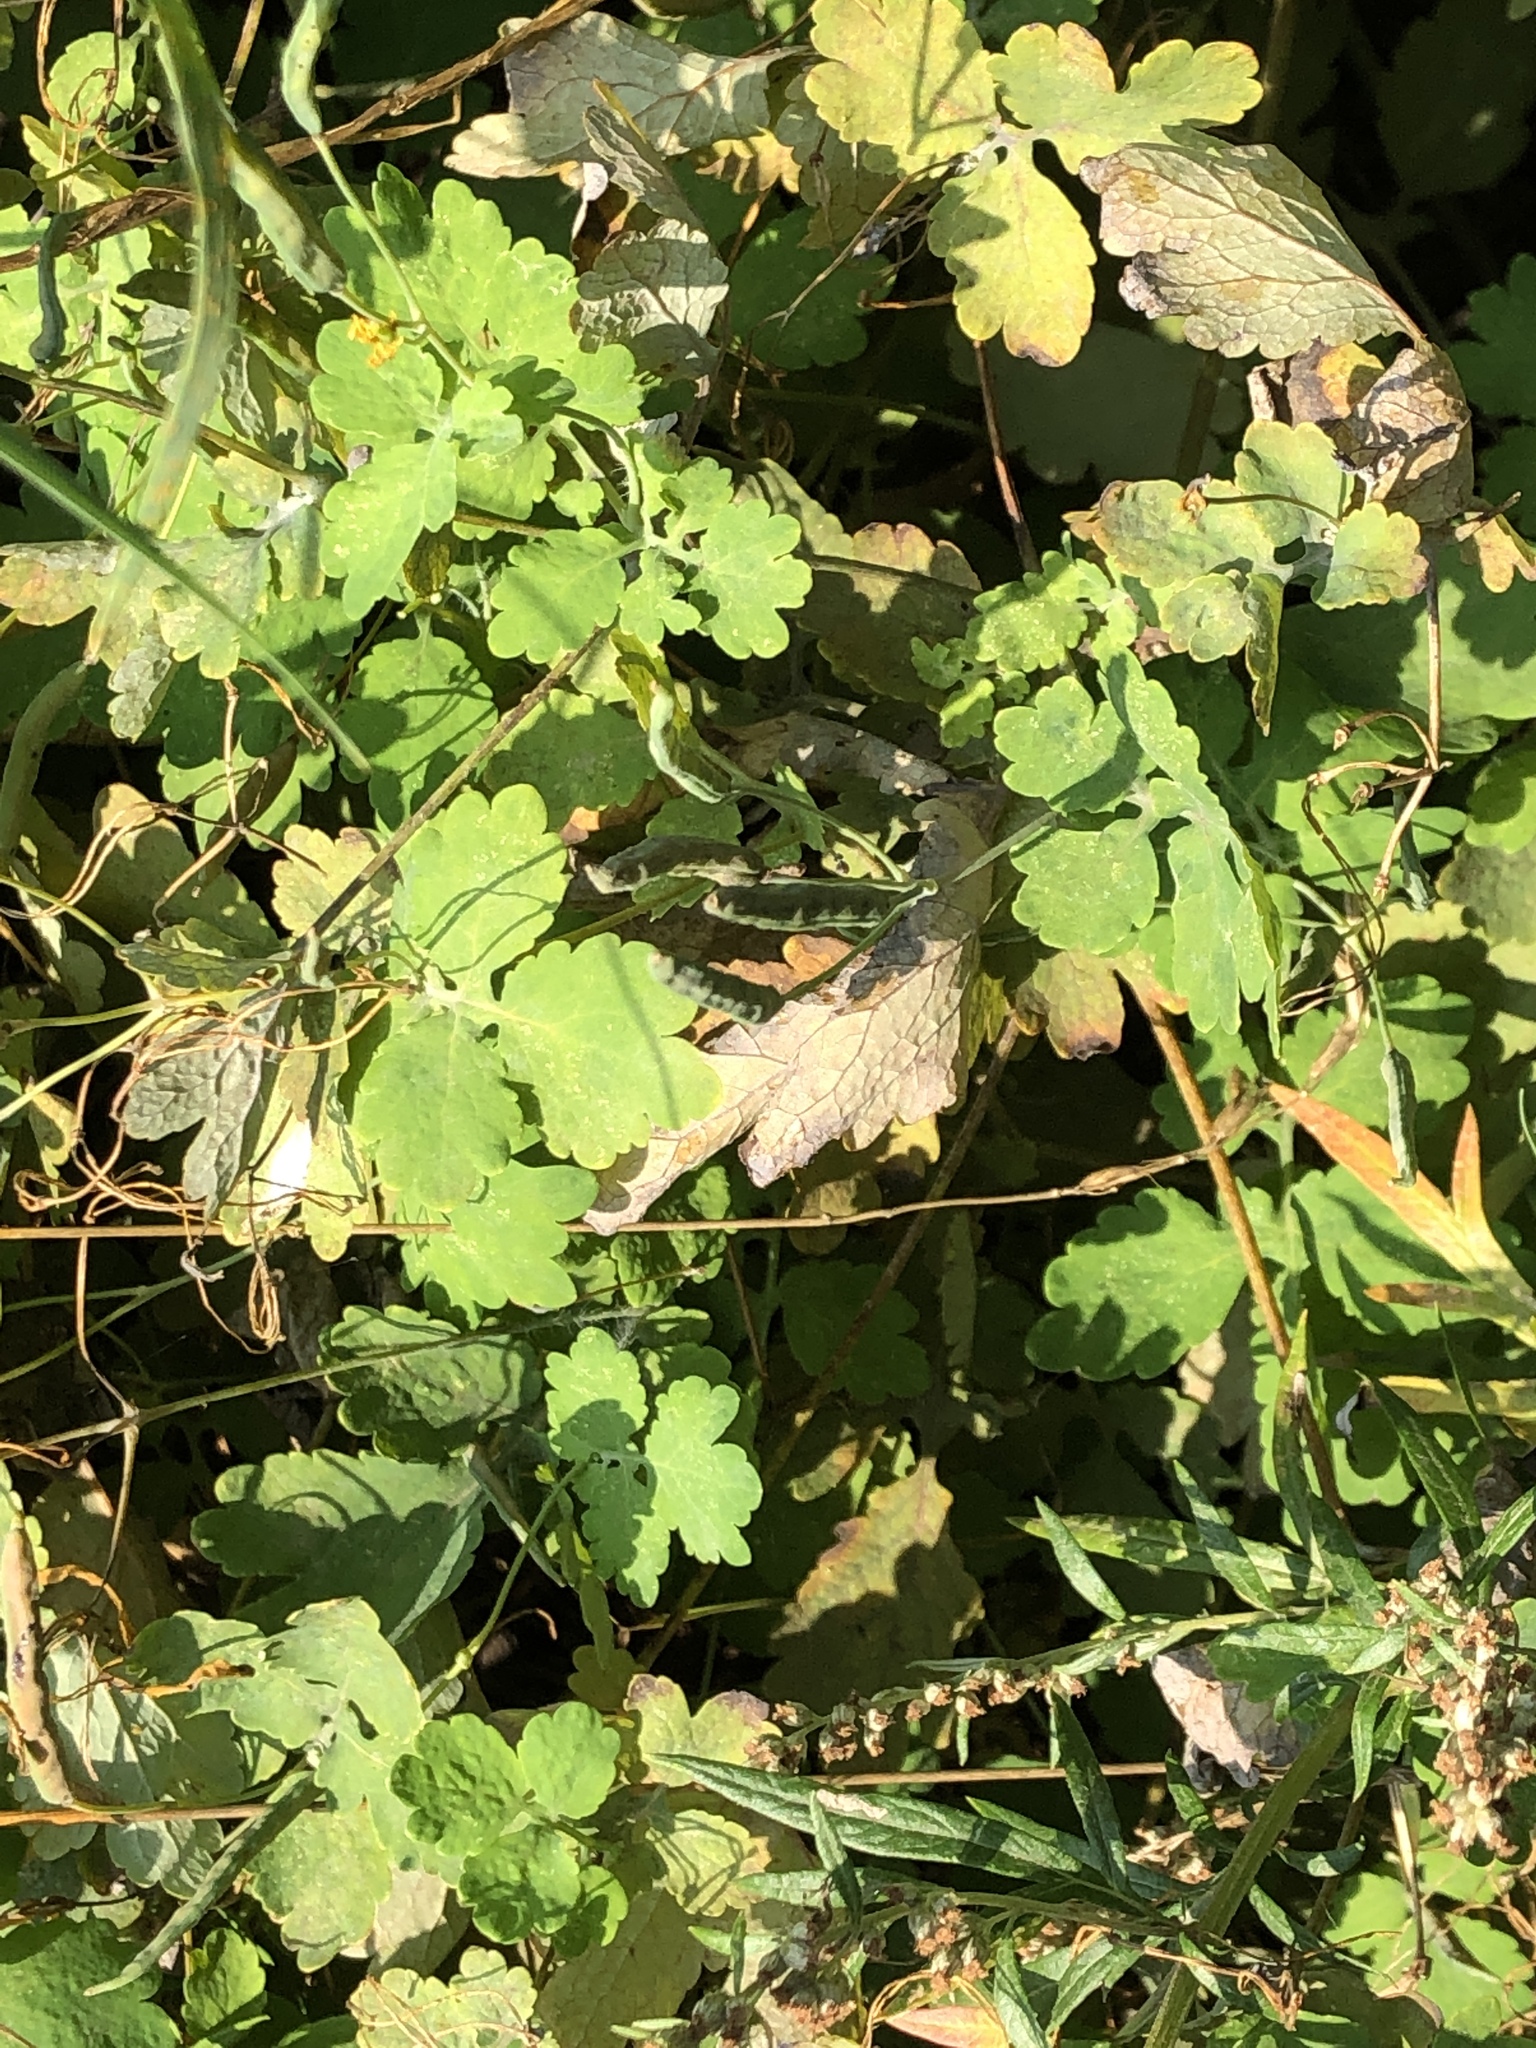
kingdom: Plantae
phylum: Tracheophyta
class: Magnoliopsida
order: Ranunculales
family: Papaveraceae
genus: Chelidonium
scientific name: Chelidonium majus
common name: Greater celandine
